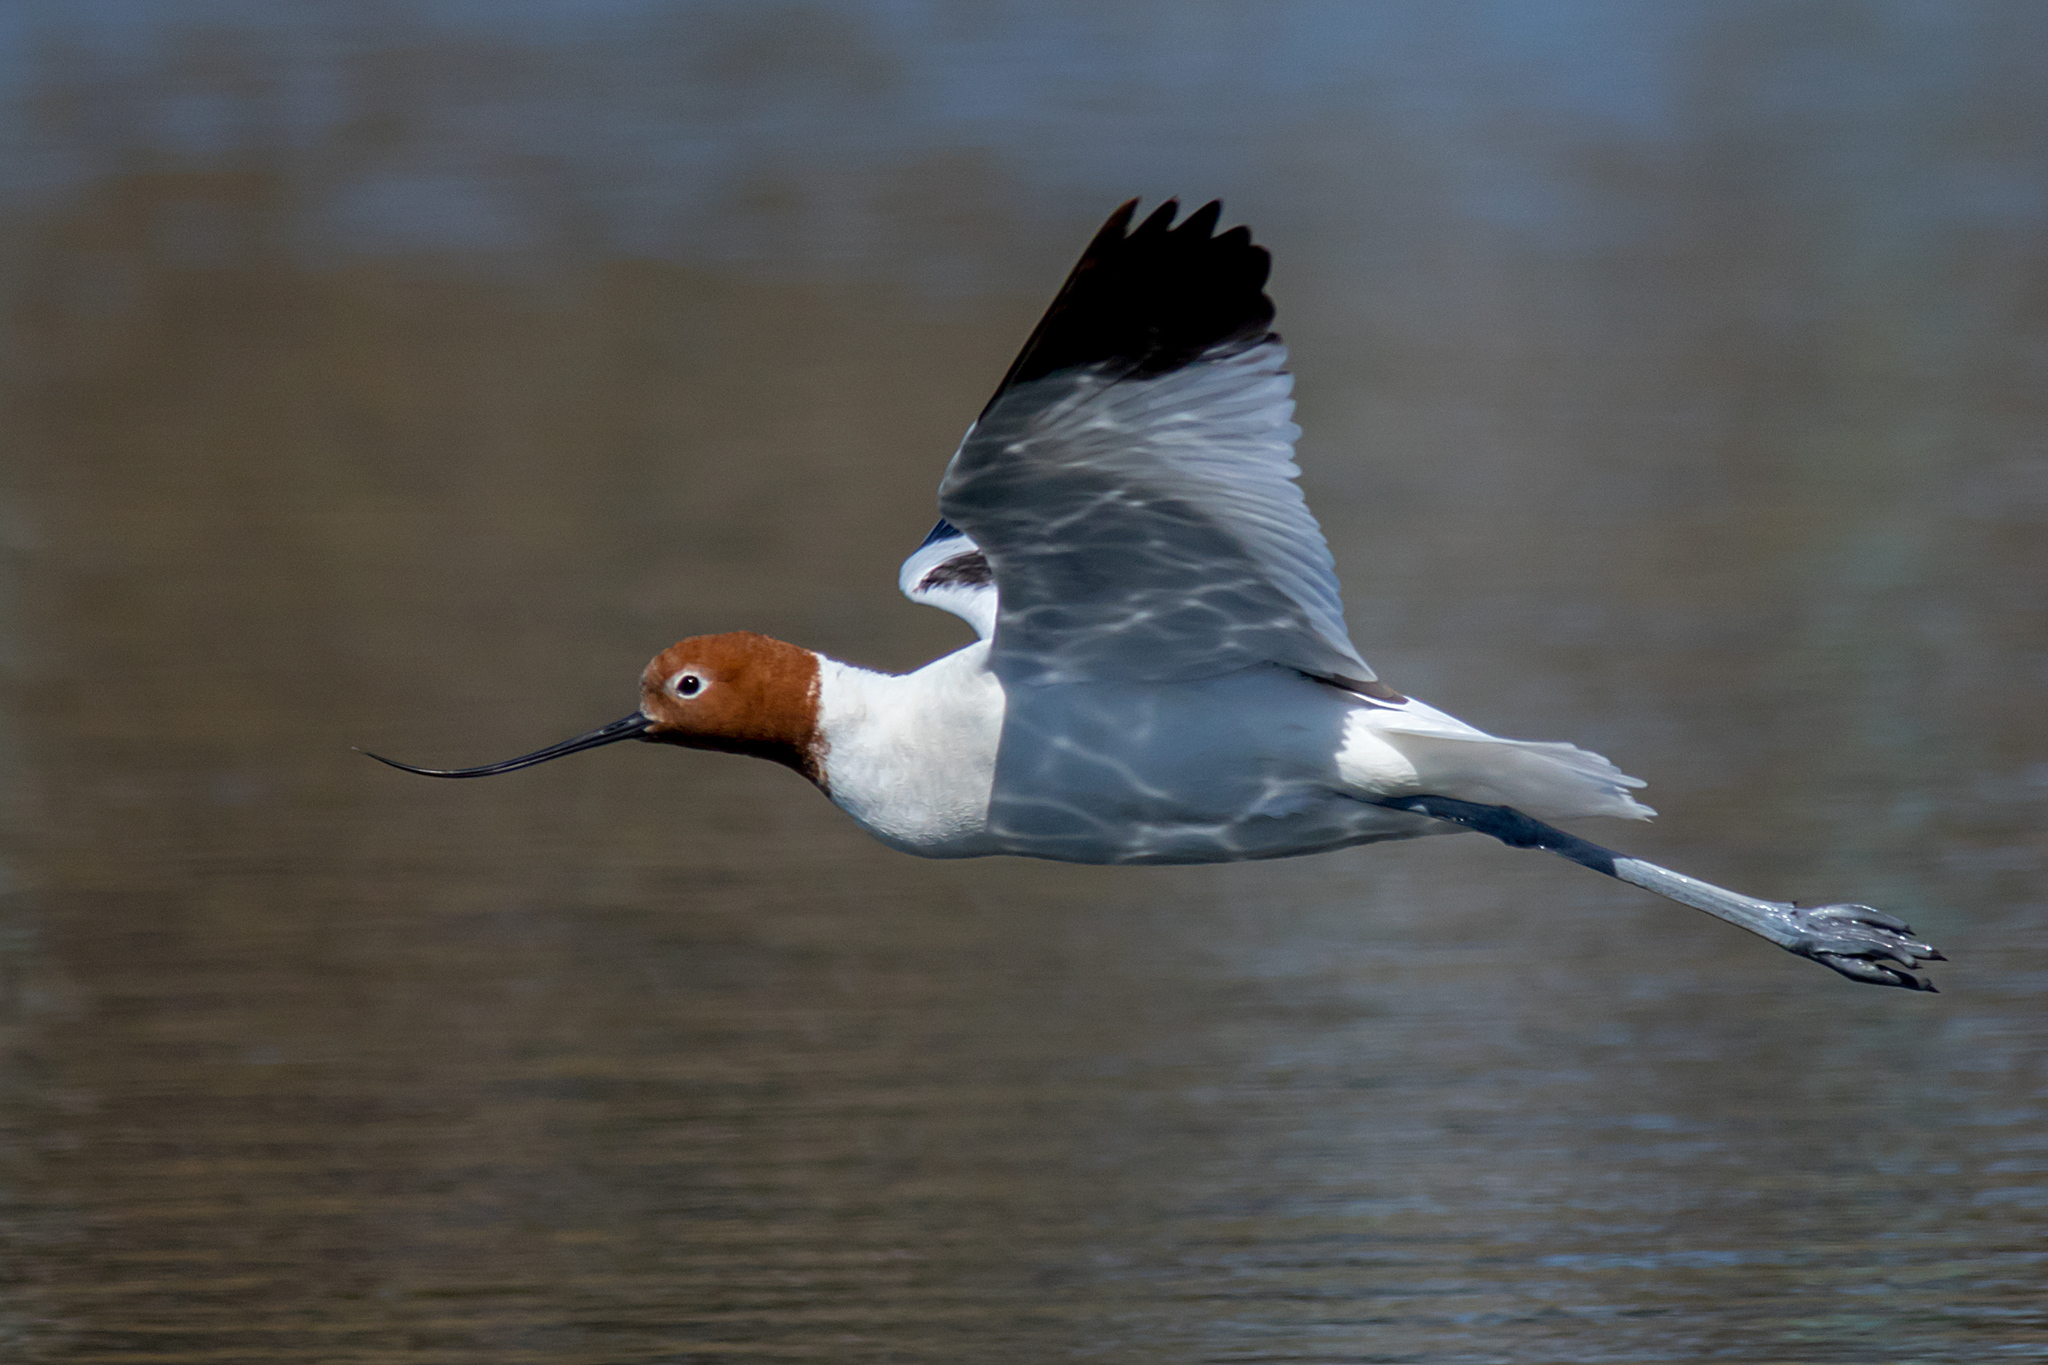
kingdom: Animalia
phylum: Chordata
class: Aves
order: Charadriiformes
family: Recurvirostridae
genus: Recurvirostra
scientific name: Recurvirostra novaehollandiae
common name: Red-necked avocet
